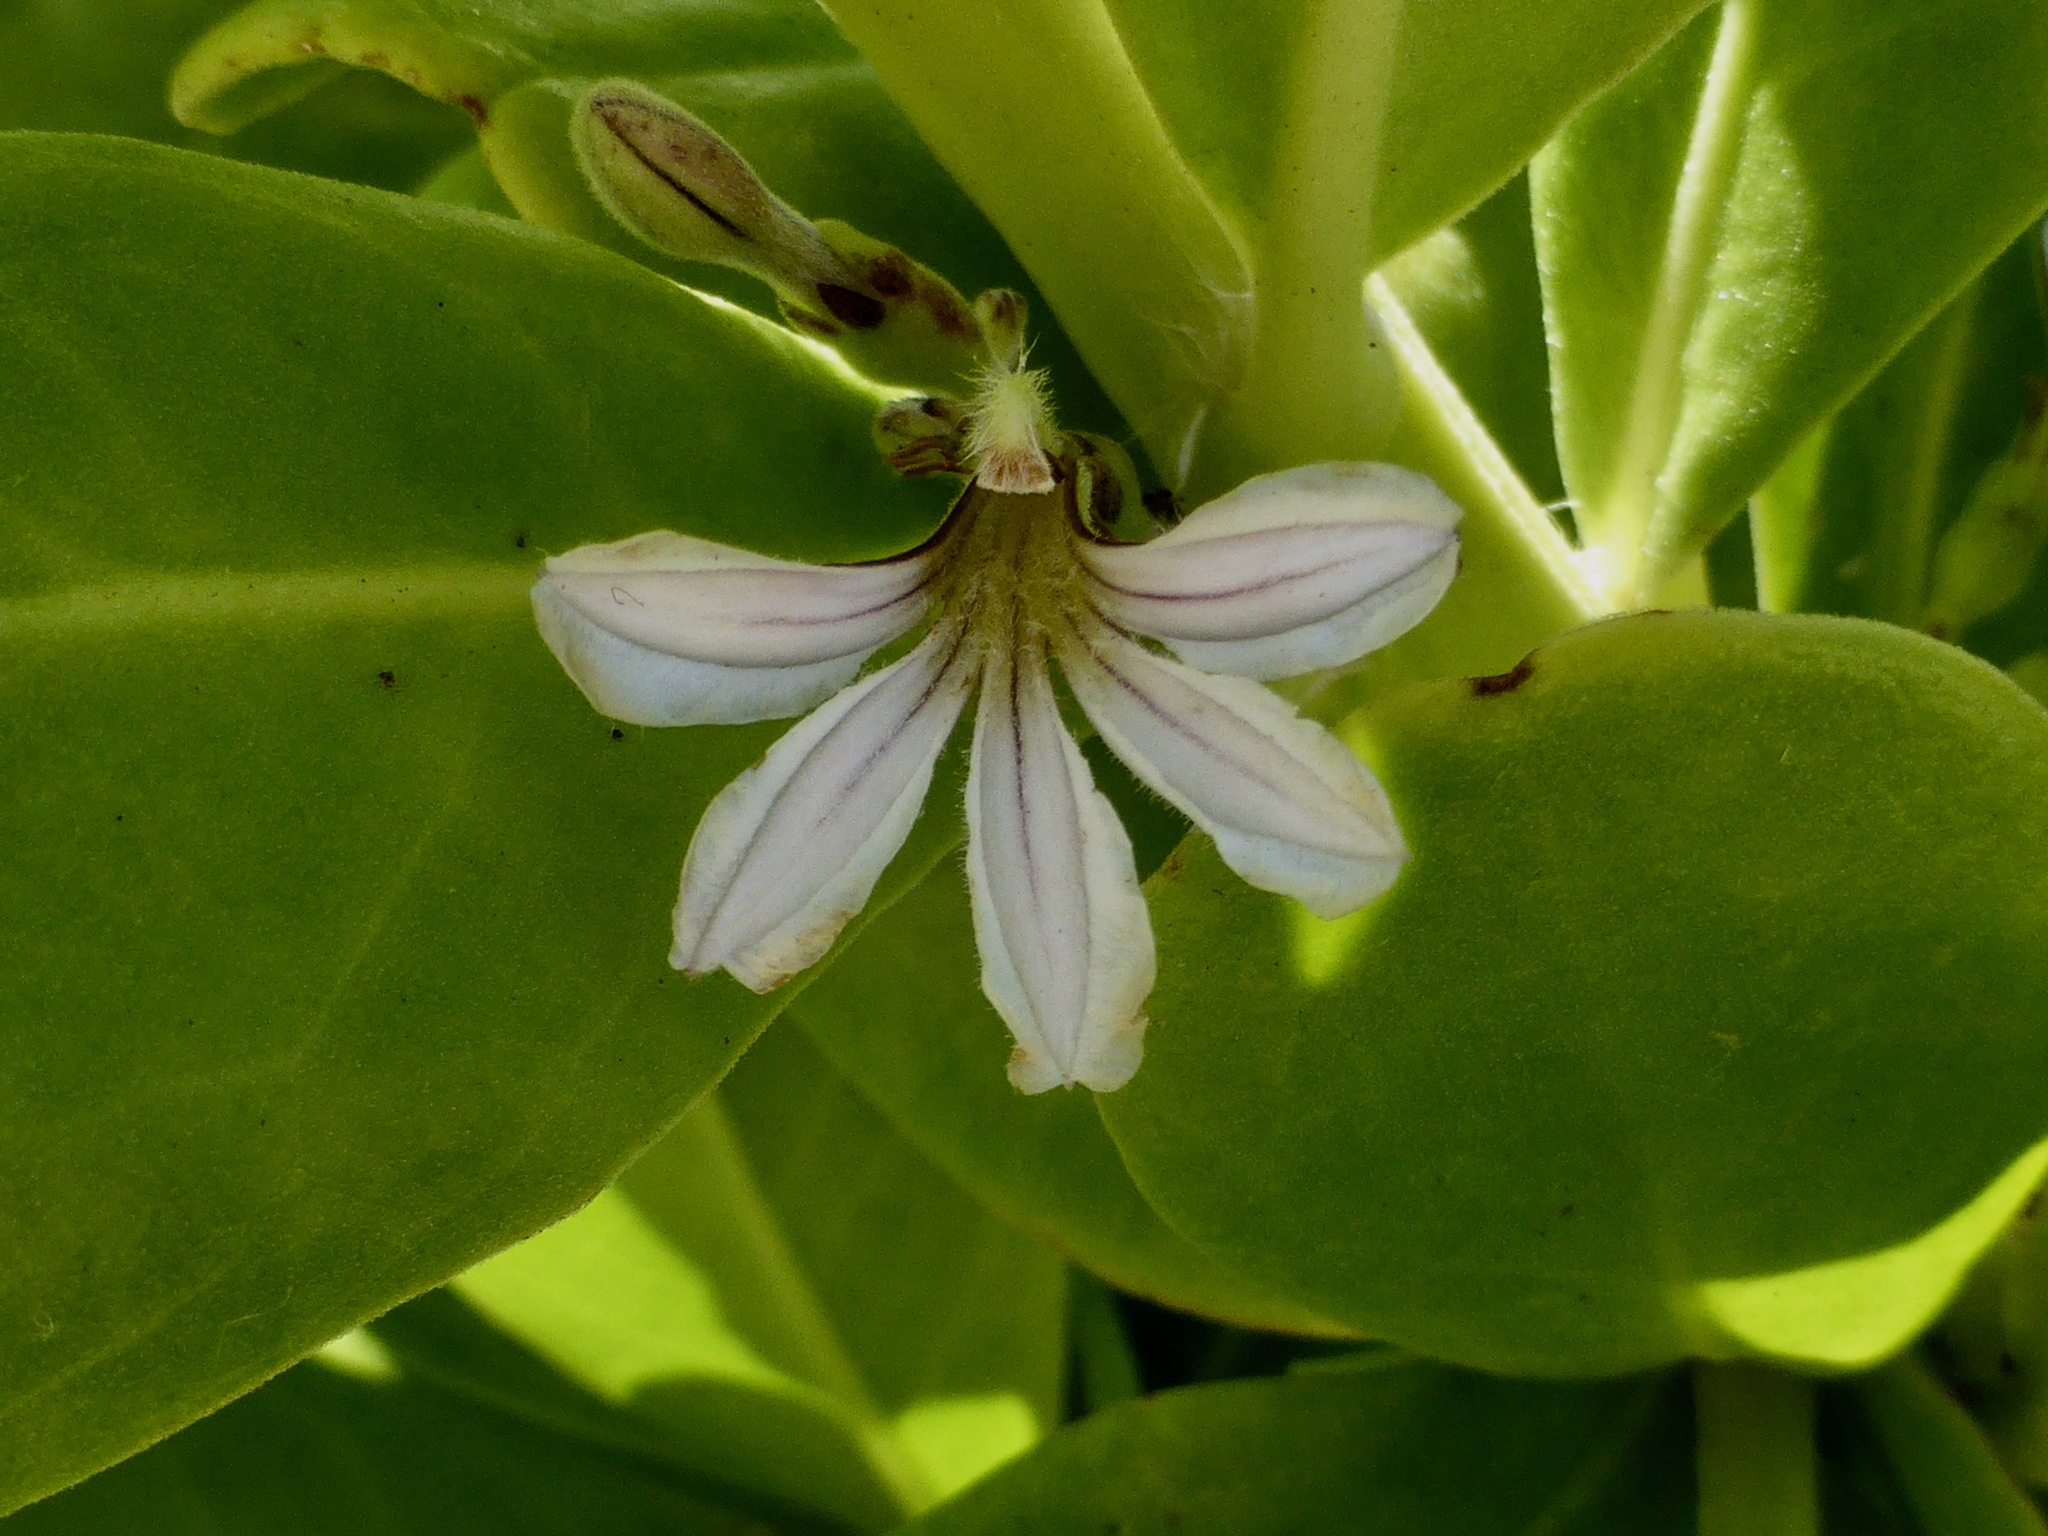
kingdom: Plantae
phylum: Tracheophyta
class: Magnoliopsida
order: Asterales
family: Goodeniaceae
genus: Scaevola
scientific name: Scaevola taccada
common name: Sea lettucetree
